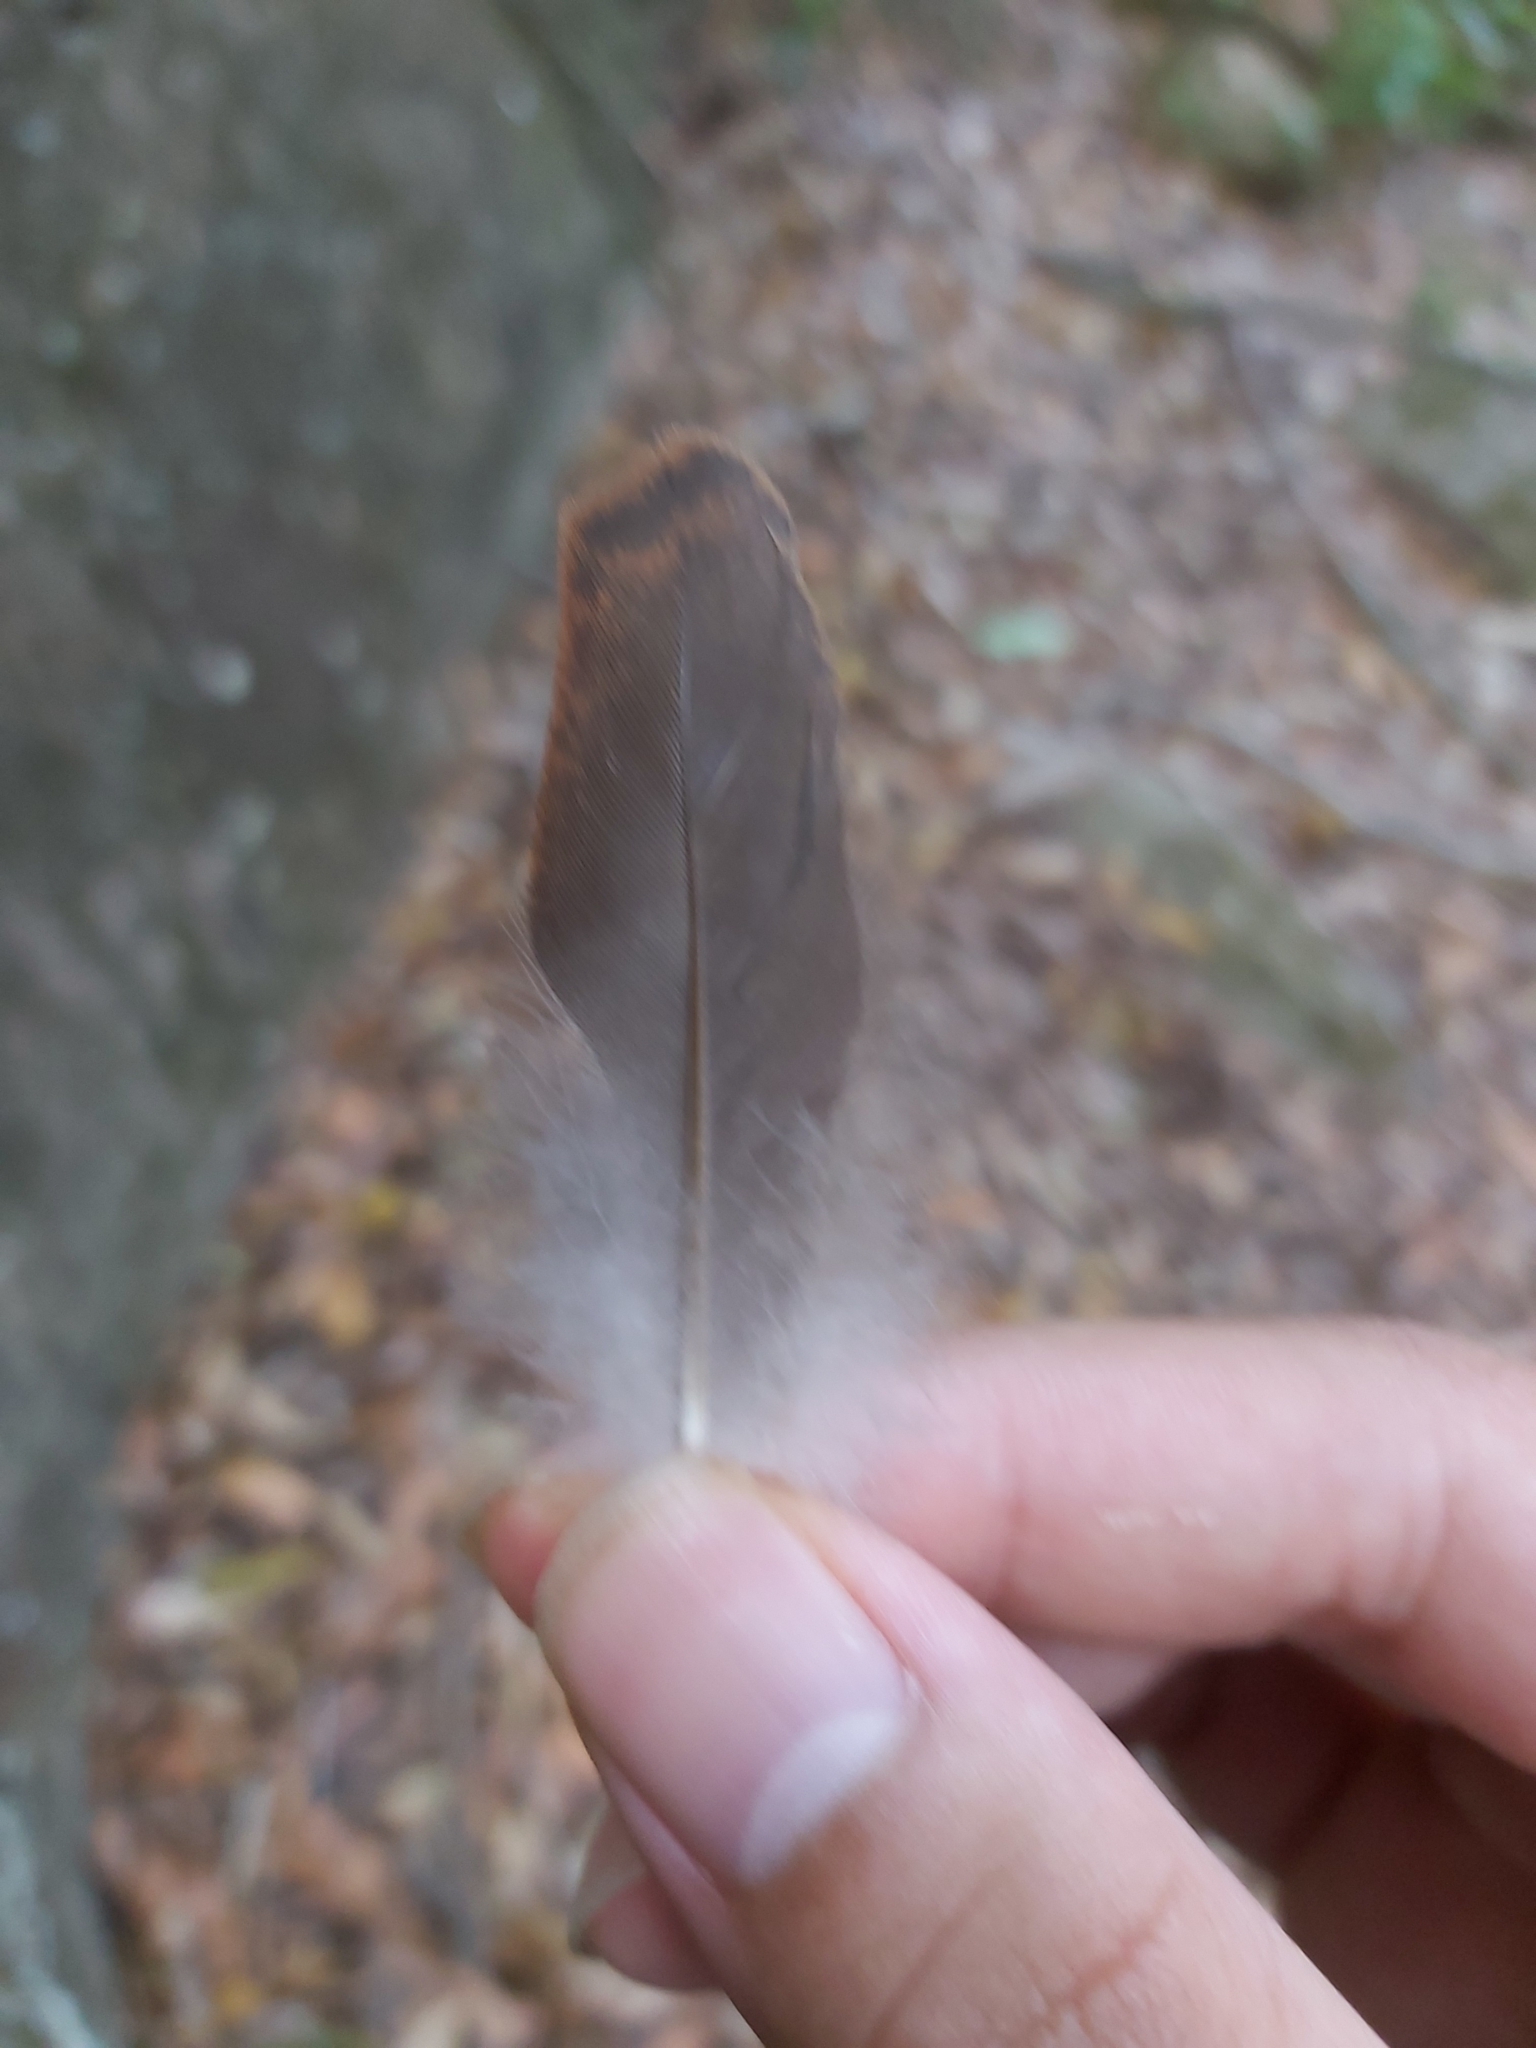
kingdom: Animalia
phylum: Chordata
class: Aves
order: Columbiformes
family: Columbidae
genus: Macropygia
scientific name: Macropygia phasianella
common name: Brown cuckoo-dove
